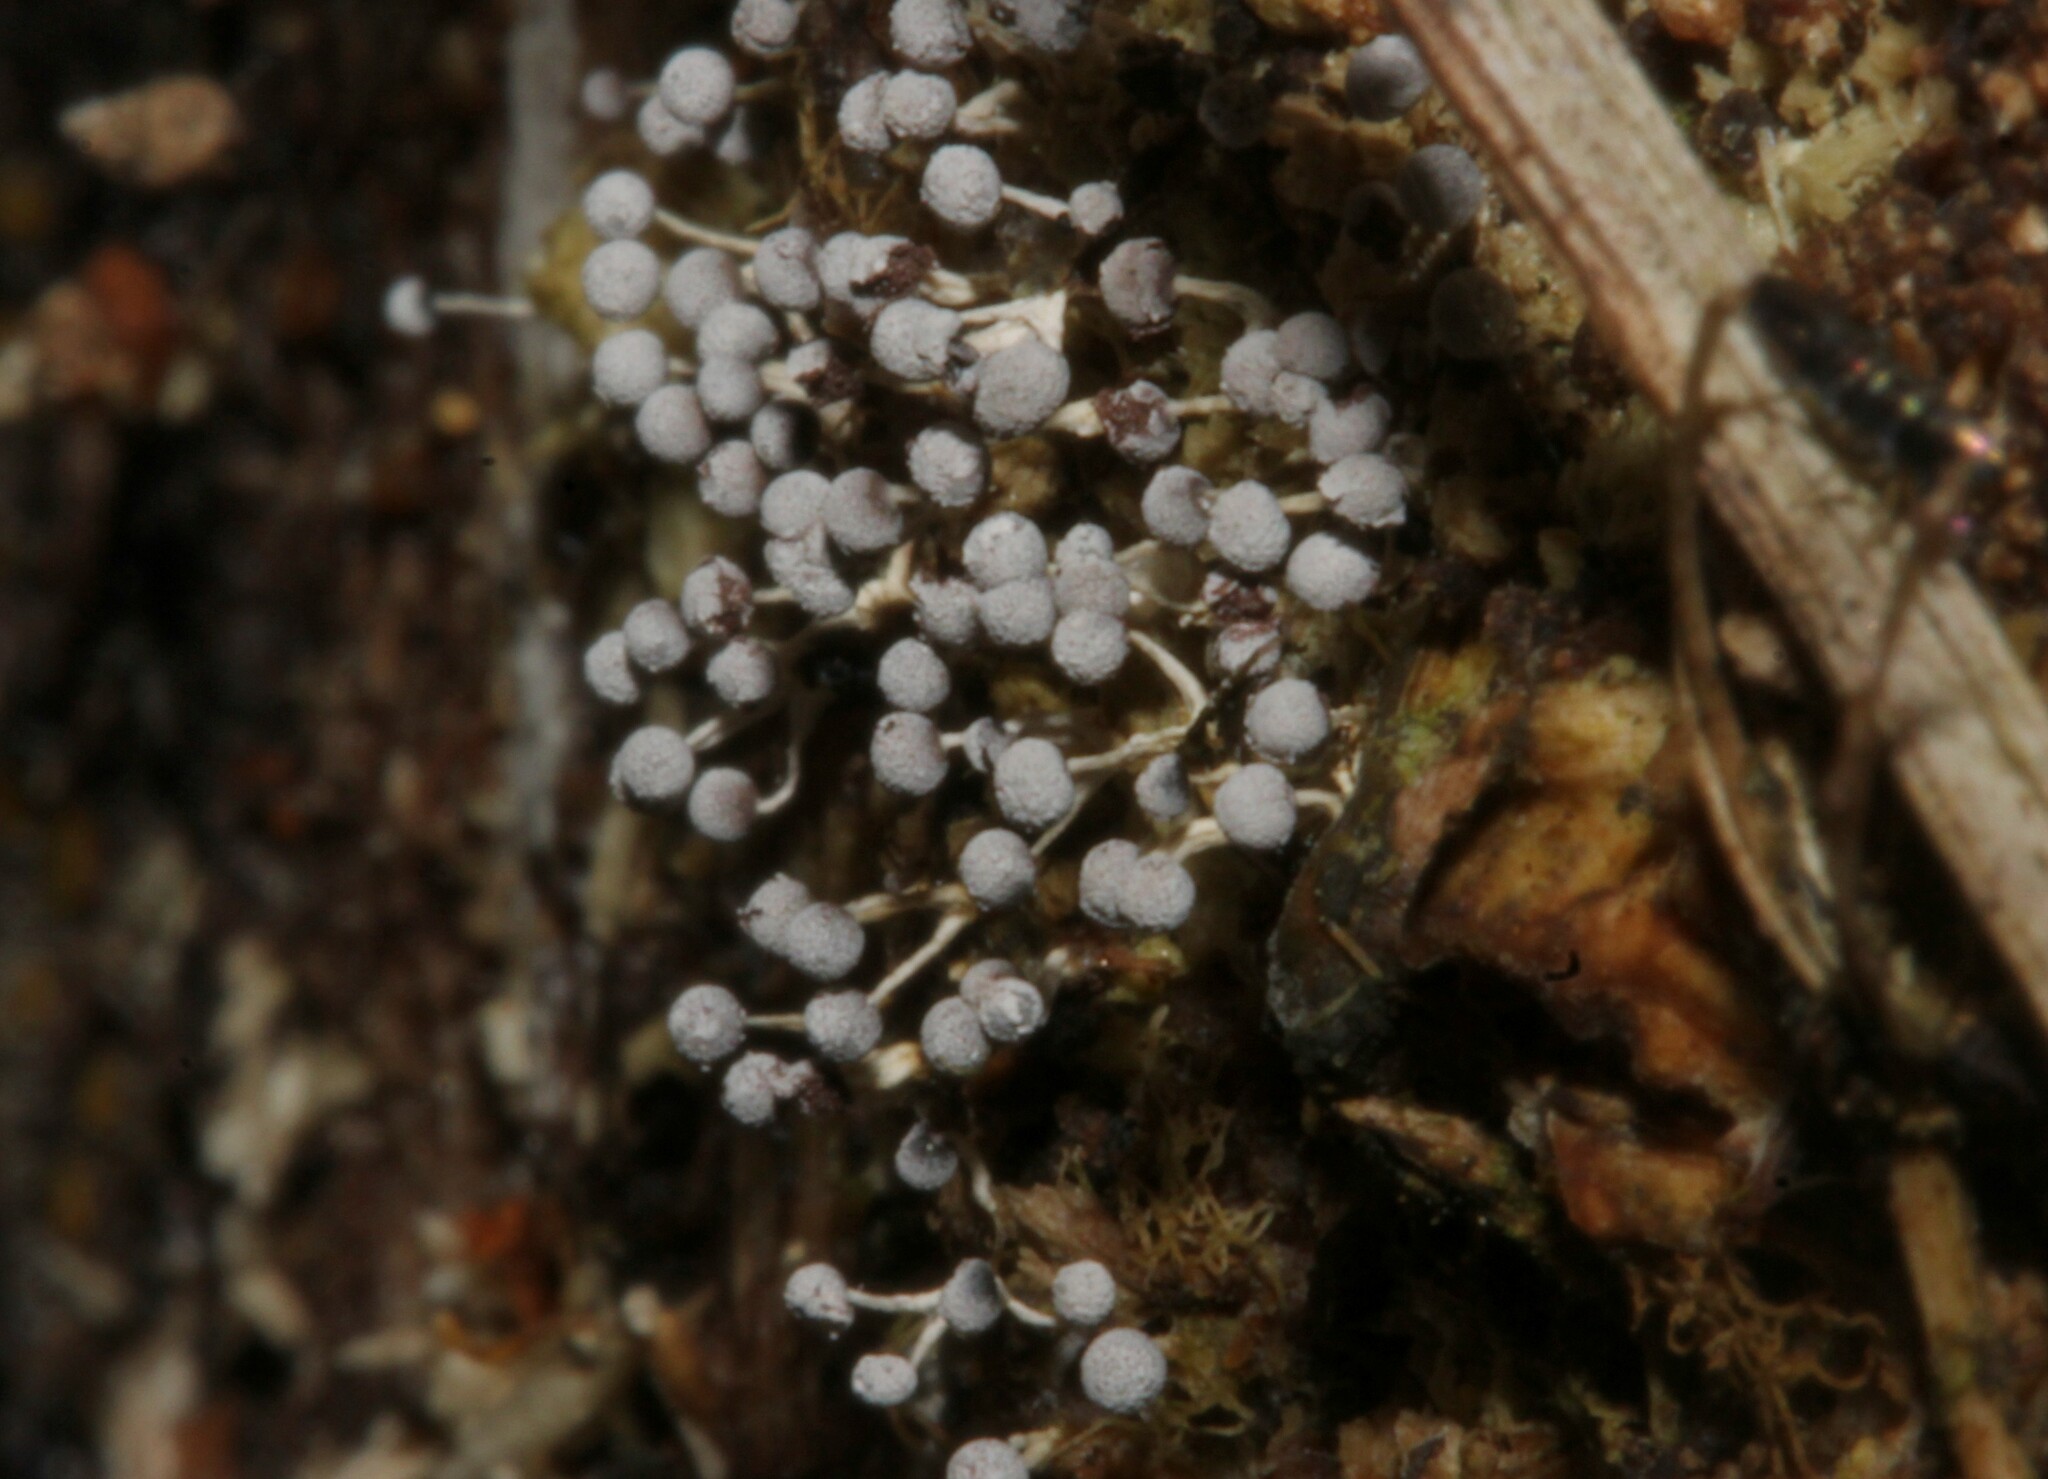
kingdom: Protozoa
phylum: Mycetozoa
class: Myxomycetes
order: Physarales
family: Physaraceae
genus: Physarum
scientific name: Physarum
